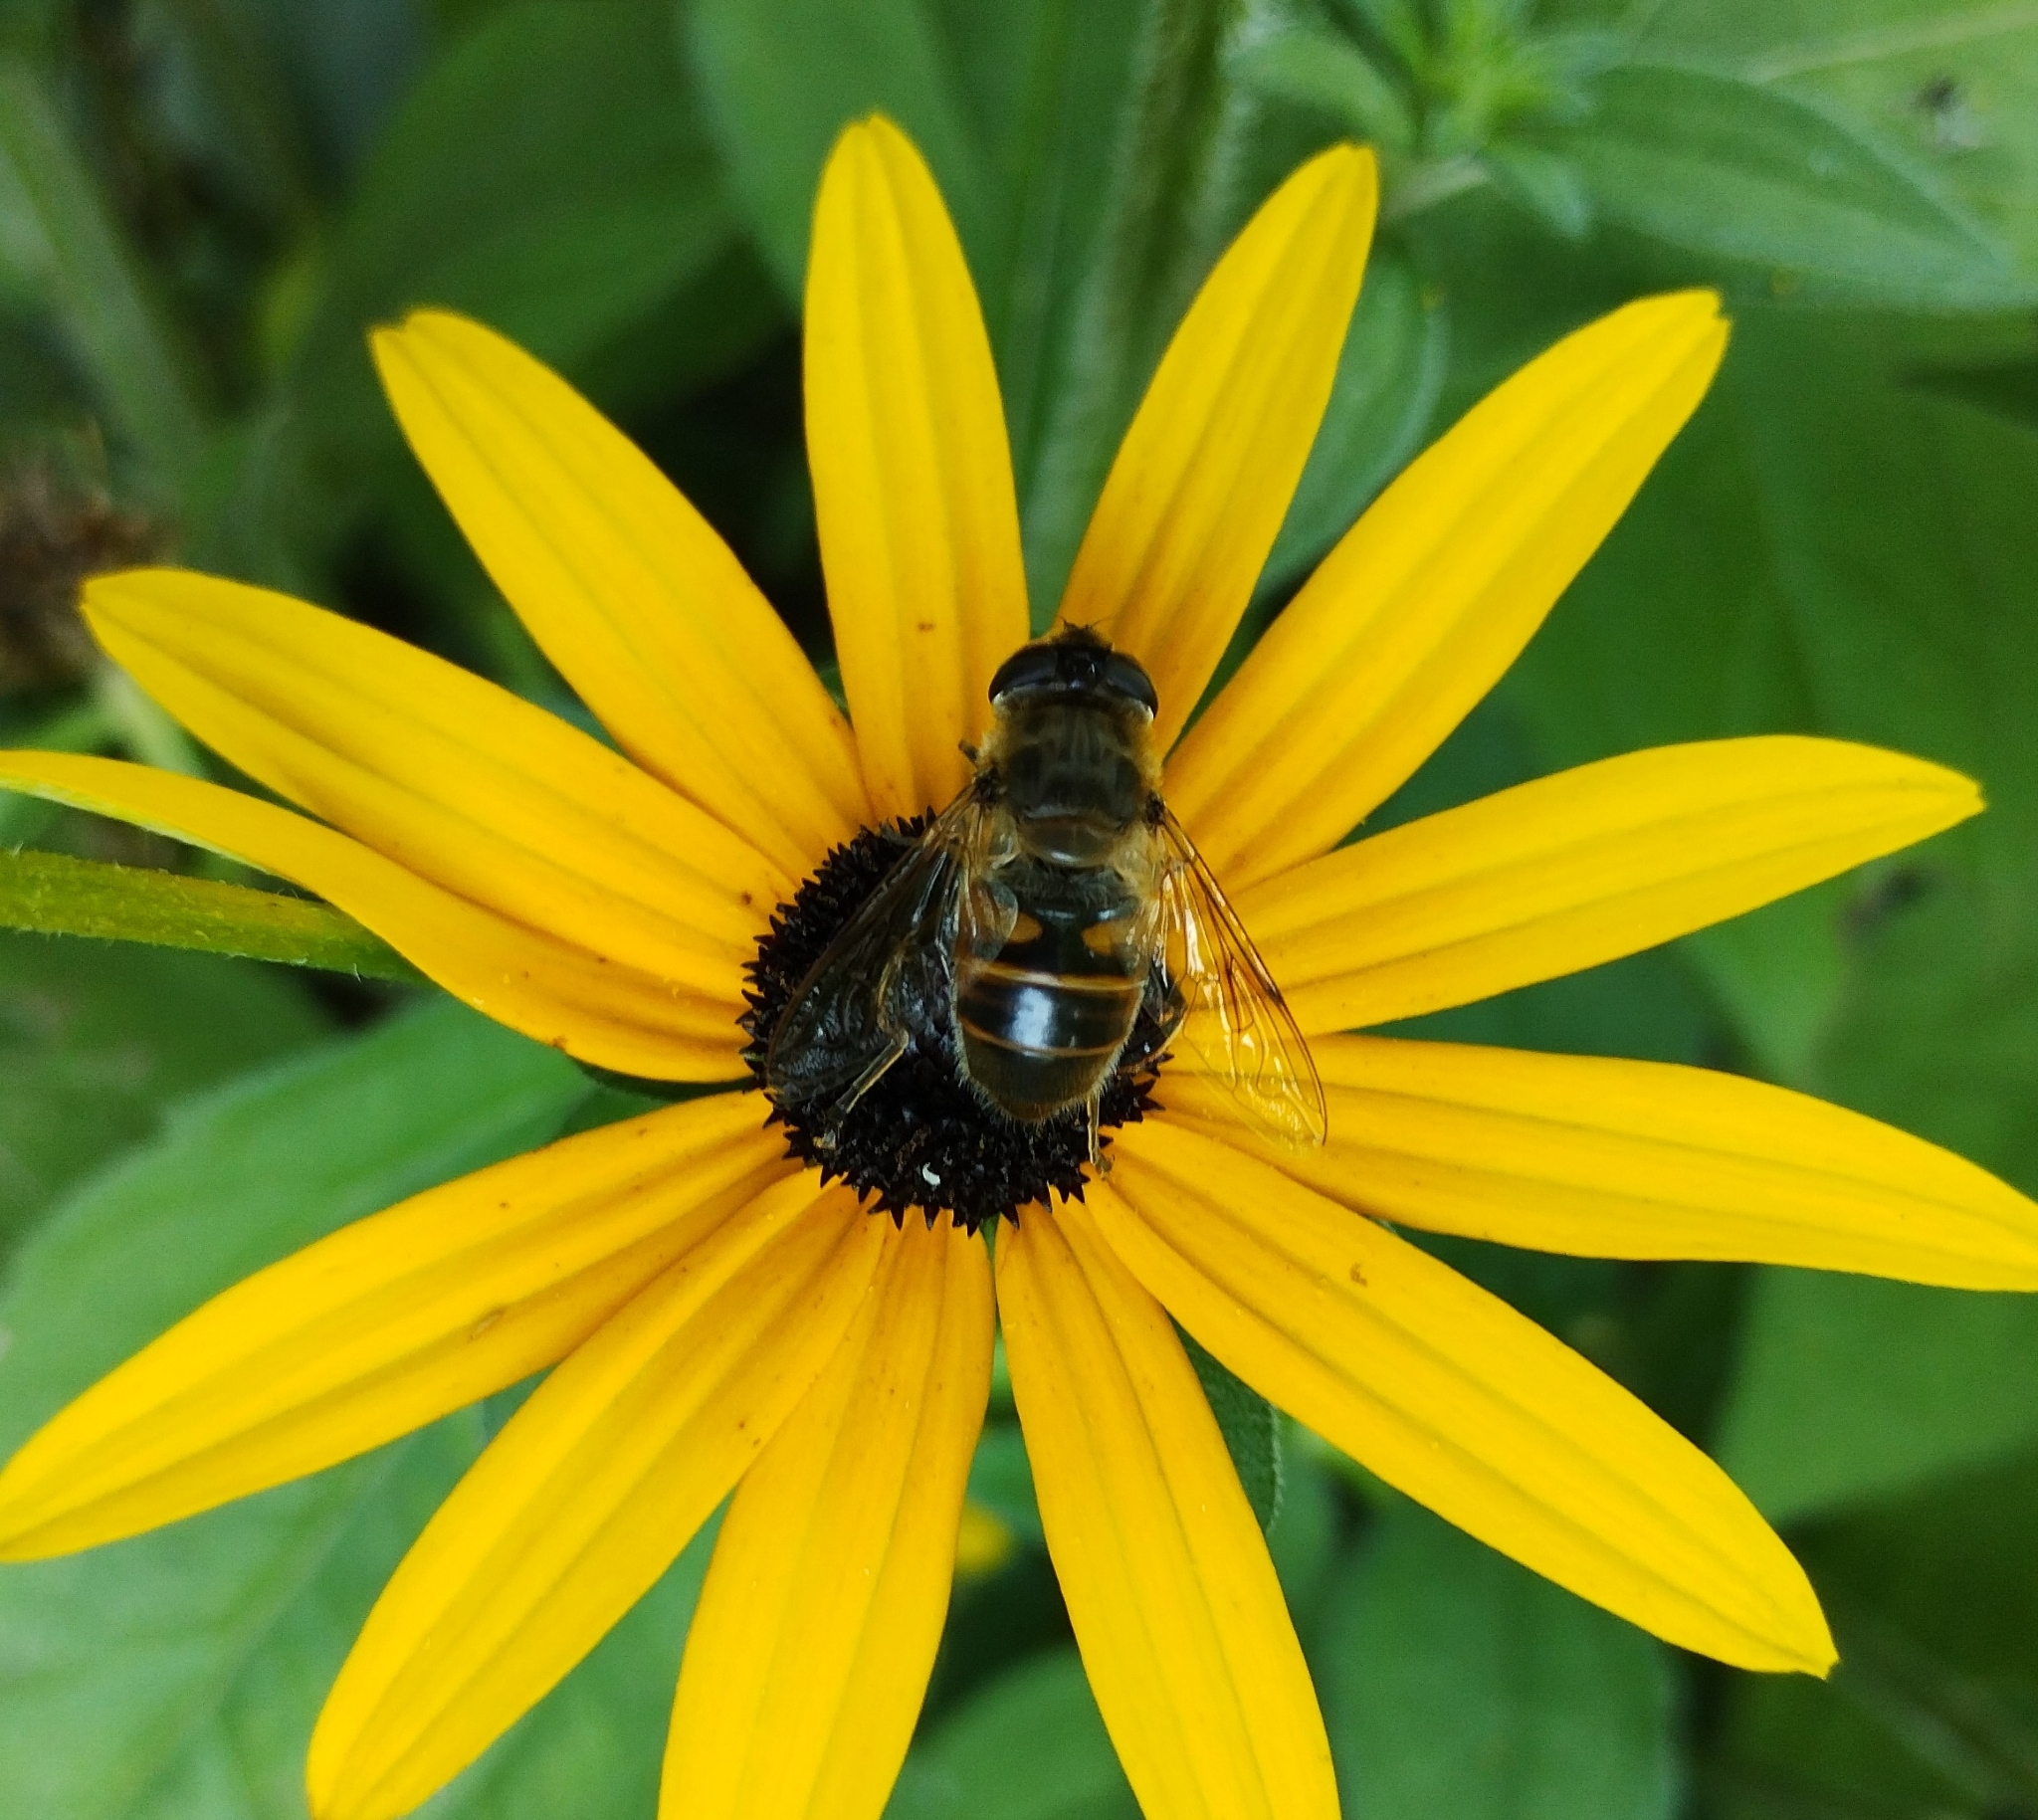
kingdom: Animalia
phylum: Arthropoda
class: Insecta
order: Diptera
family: Syrphidae
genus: Eristalis
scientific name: Eristalis tenax
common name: Drone fly
